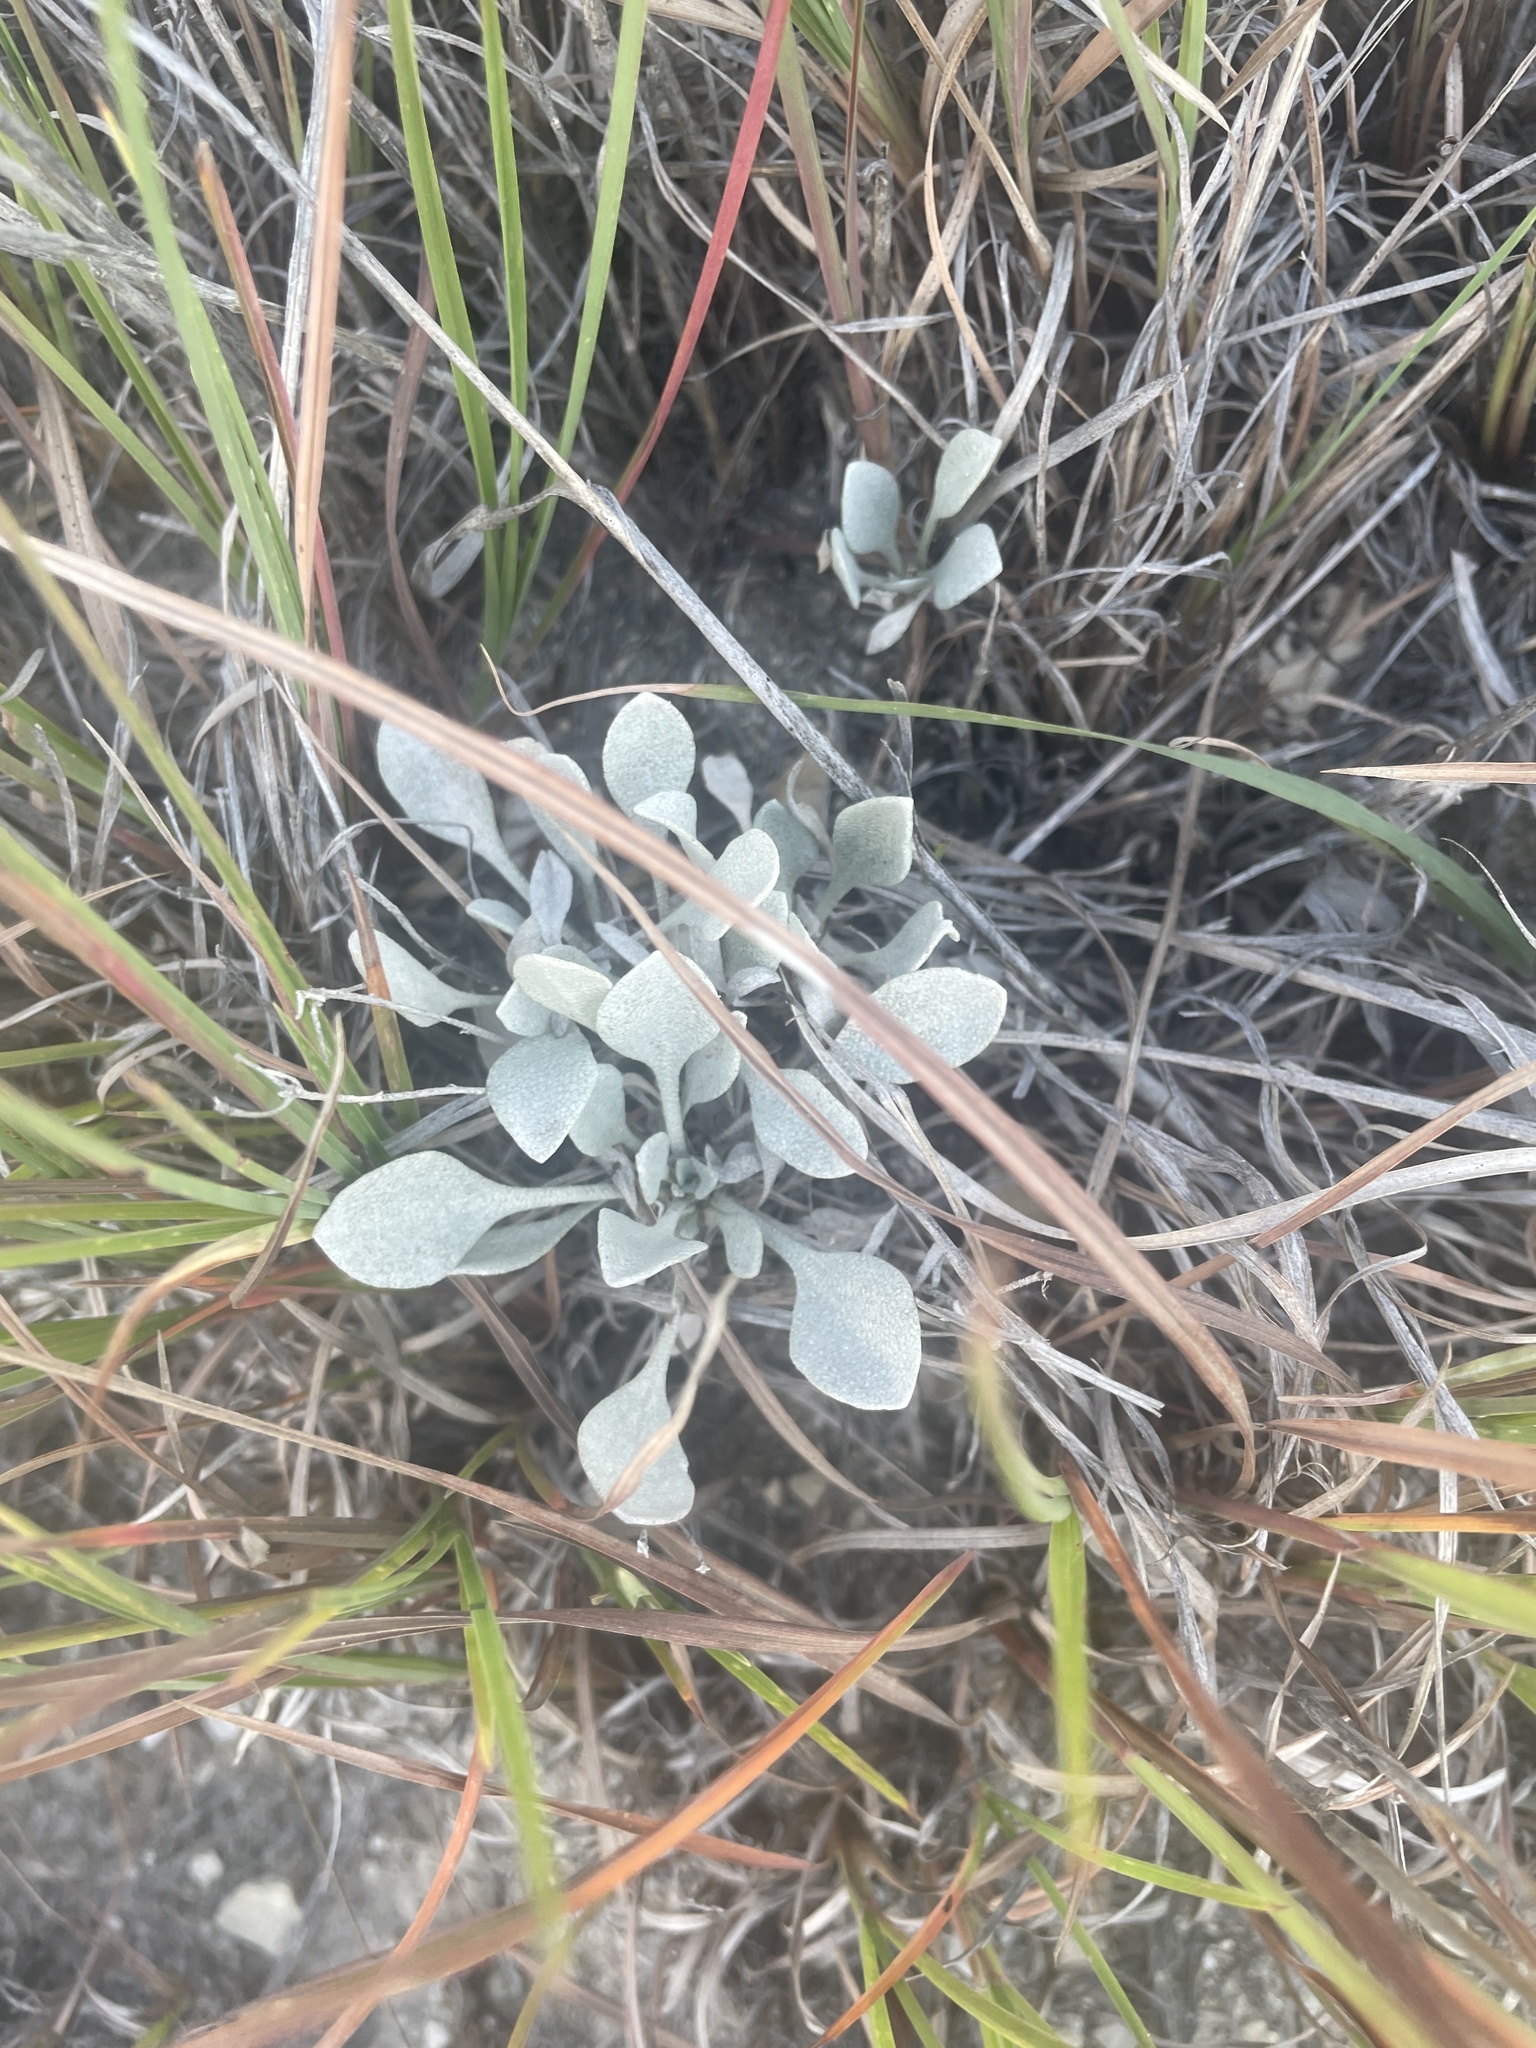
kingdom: Plantae
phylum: Tracheophyta
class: Magnoliopsida
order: Brassicales
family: Brassicaceae
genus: Physaria
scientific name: Physaria ovalifolia
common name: Round-leaf bladderpod
